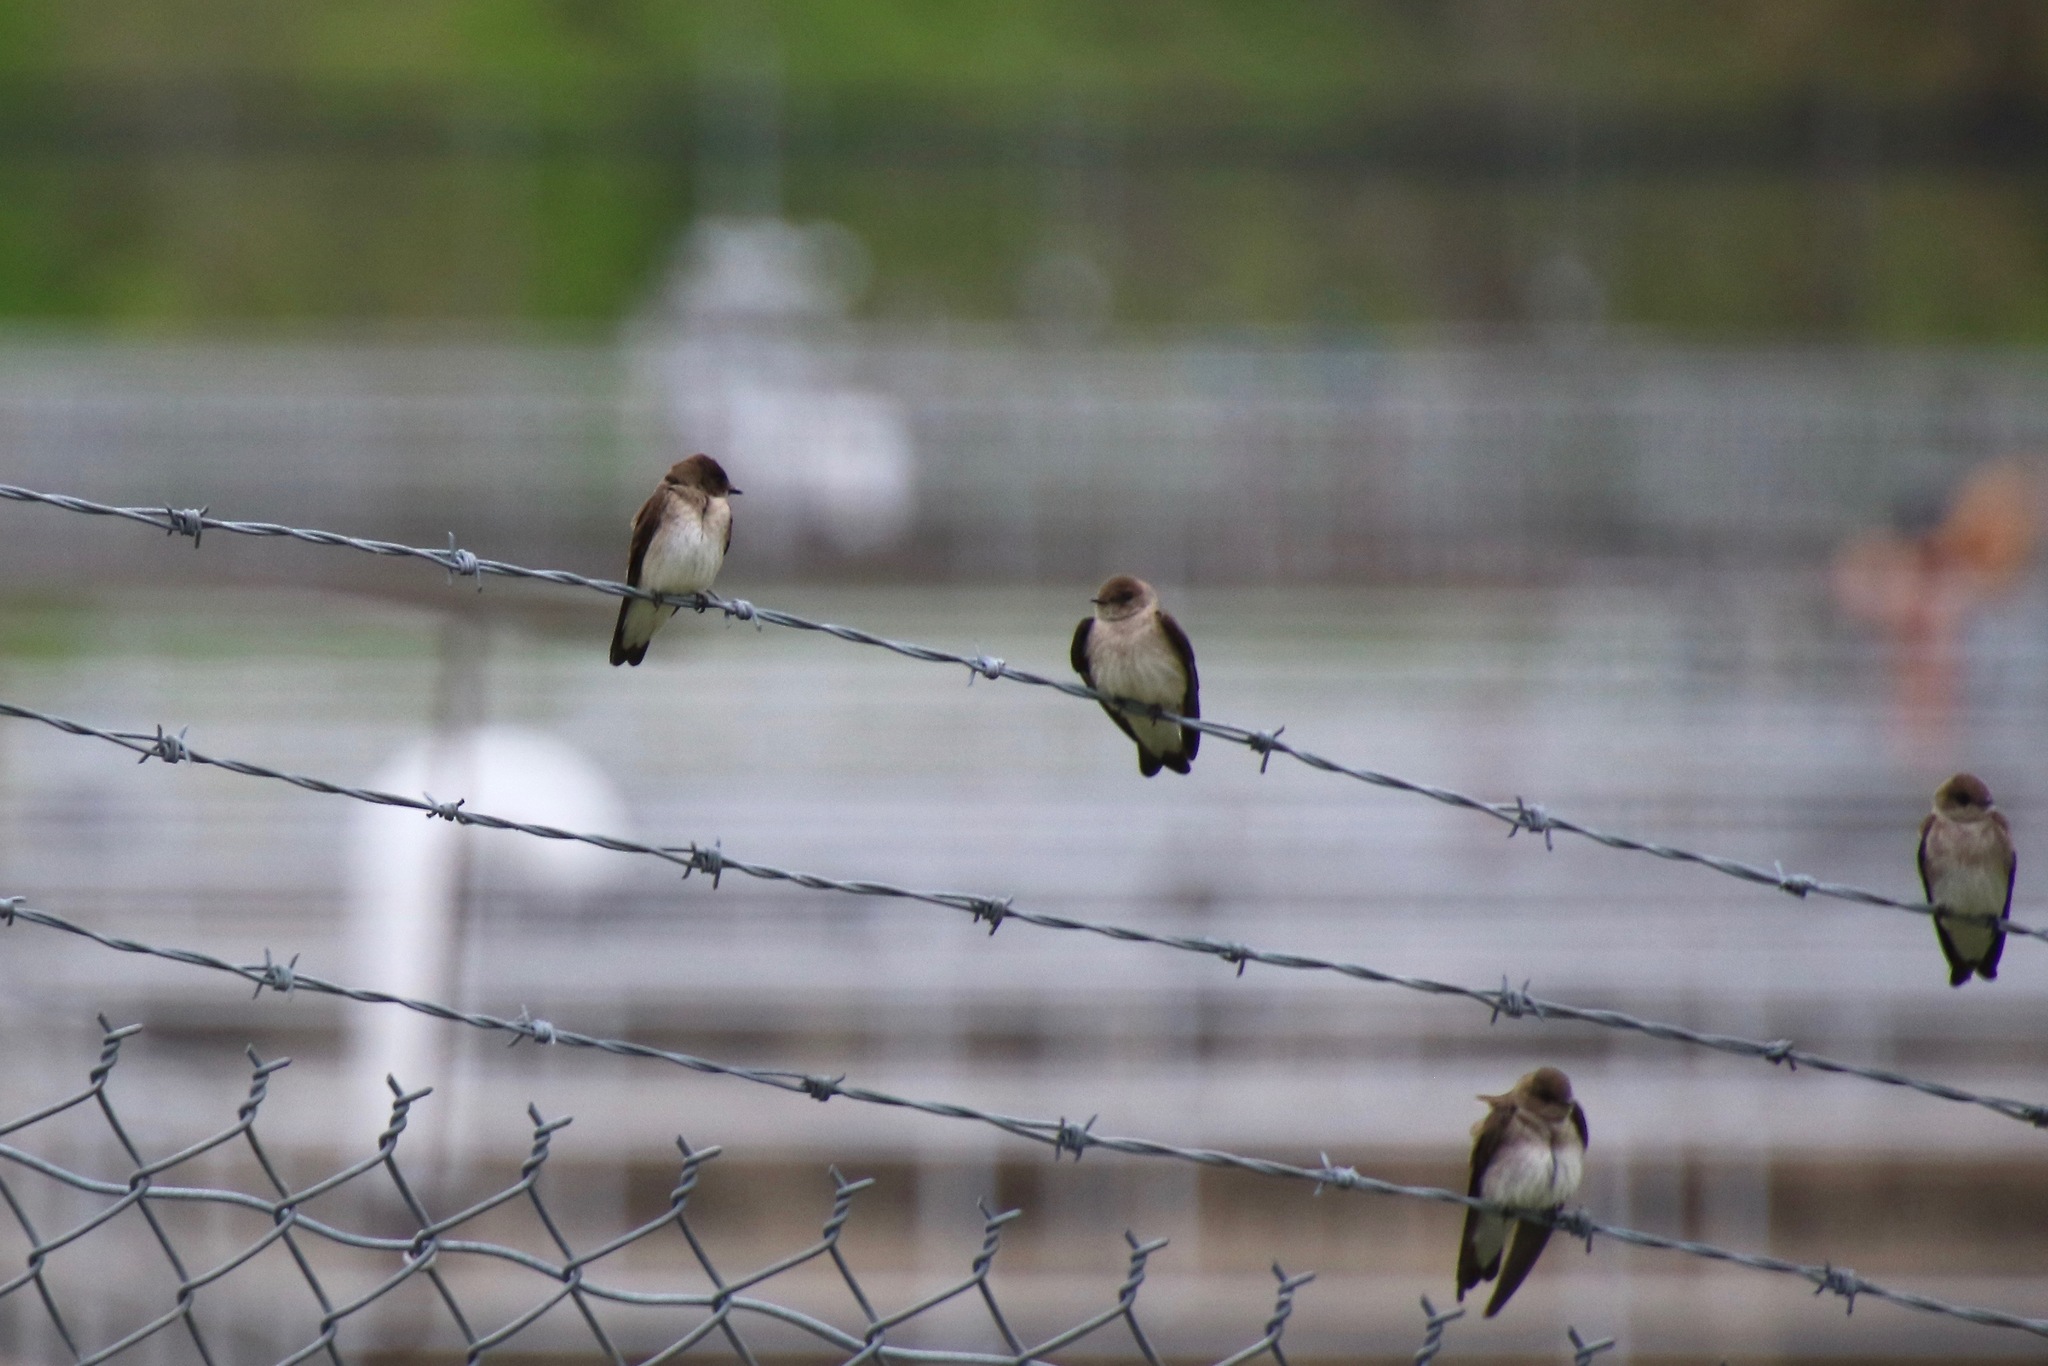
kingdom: Animalia
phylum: Chordata
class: Aves
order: Passeriformes
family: Hirundinidae
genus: Stelgidopteryx
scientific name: Stelgidopteryx serripennis
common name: Northern rough-winged swallow
